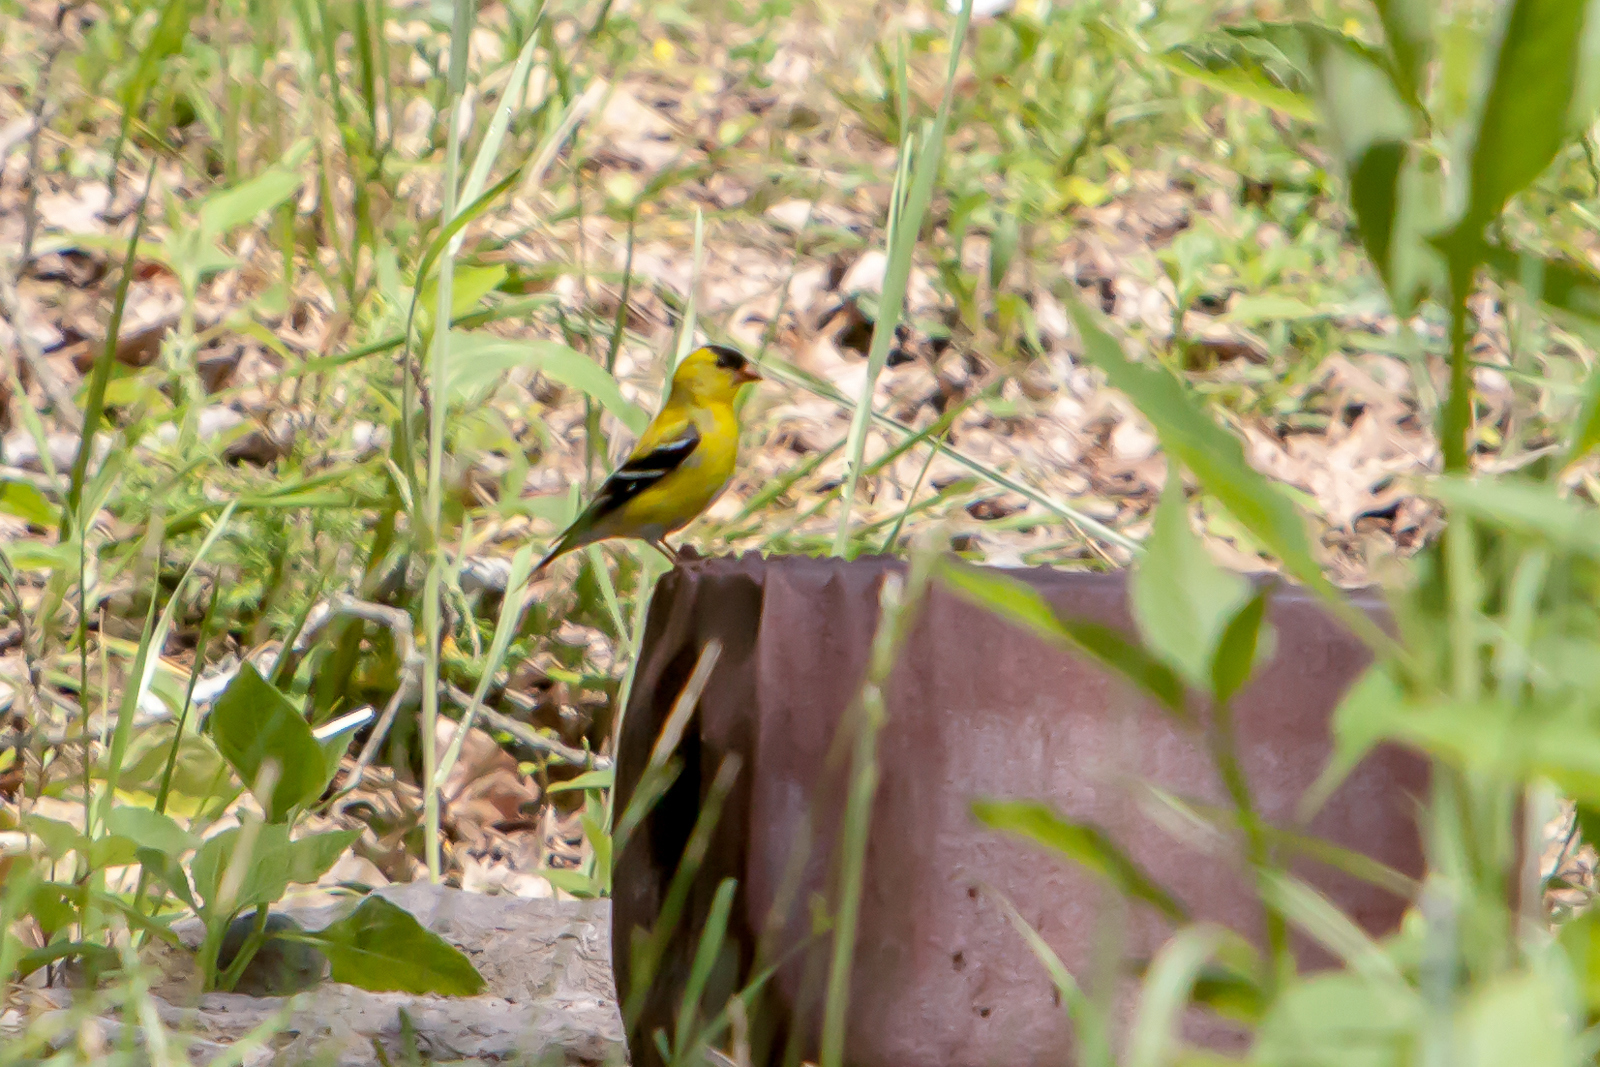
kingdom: Animalia
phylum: Chordata
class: Aves
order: Passeriformes
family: Fringillidae
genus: Spinus
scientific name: Spinus tristis
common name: American goldfinch
